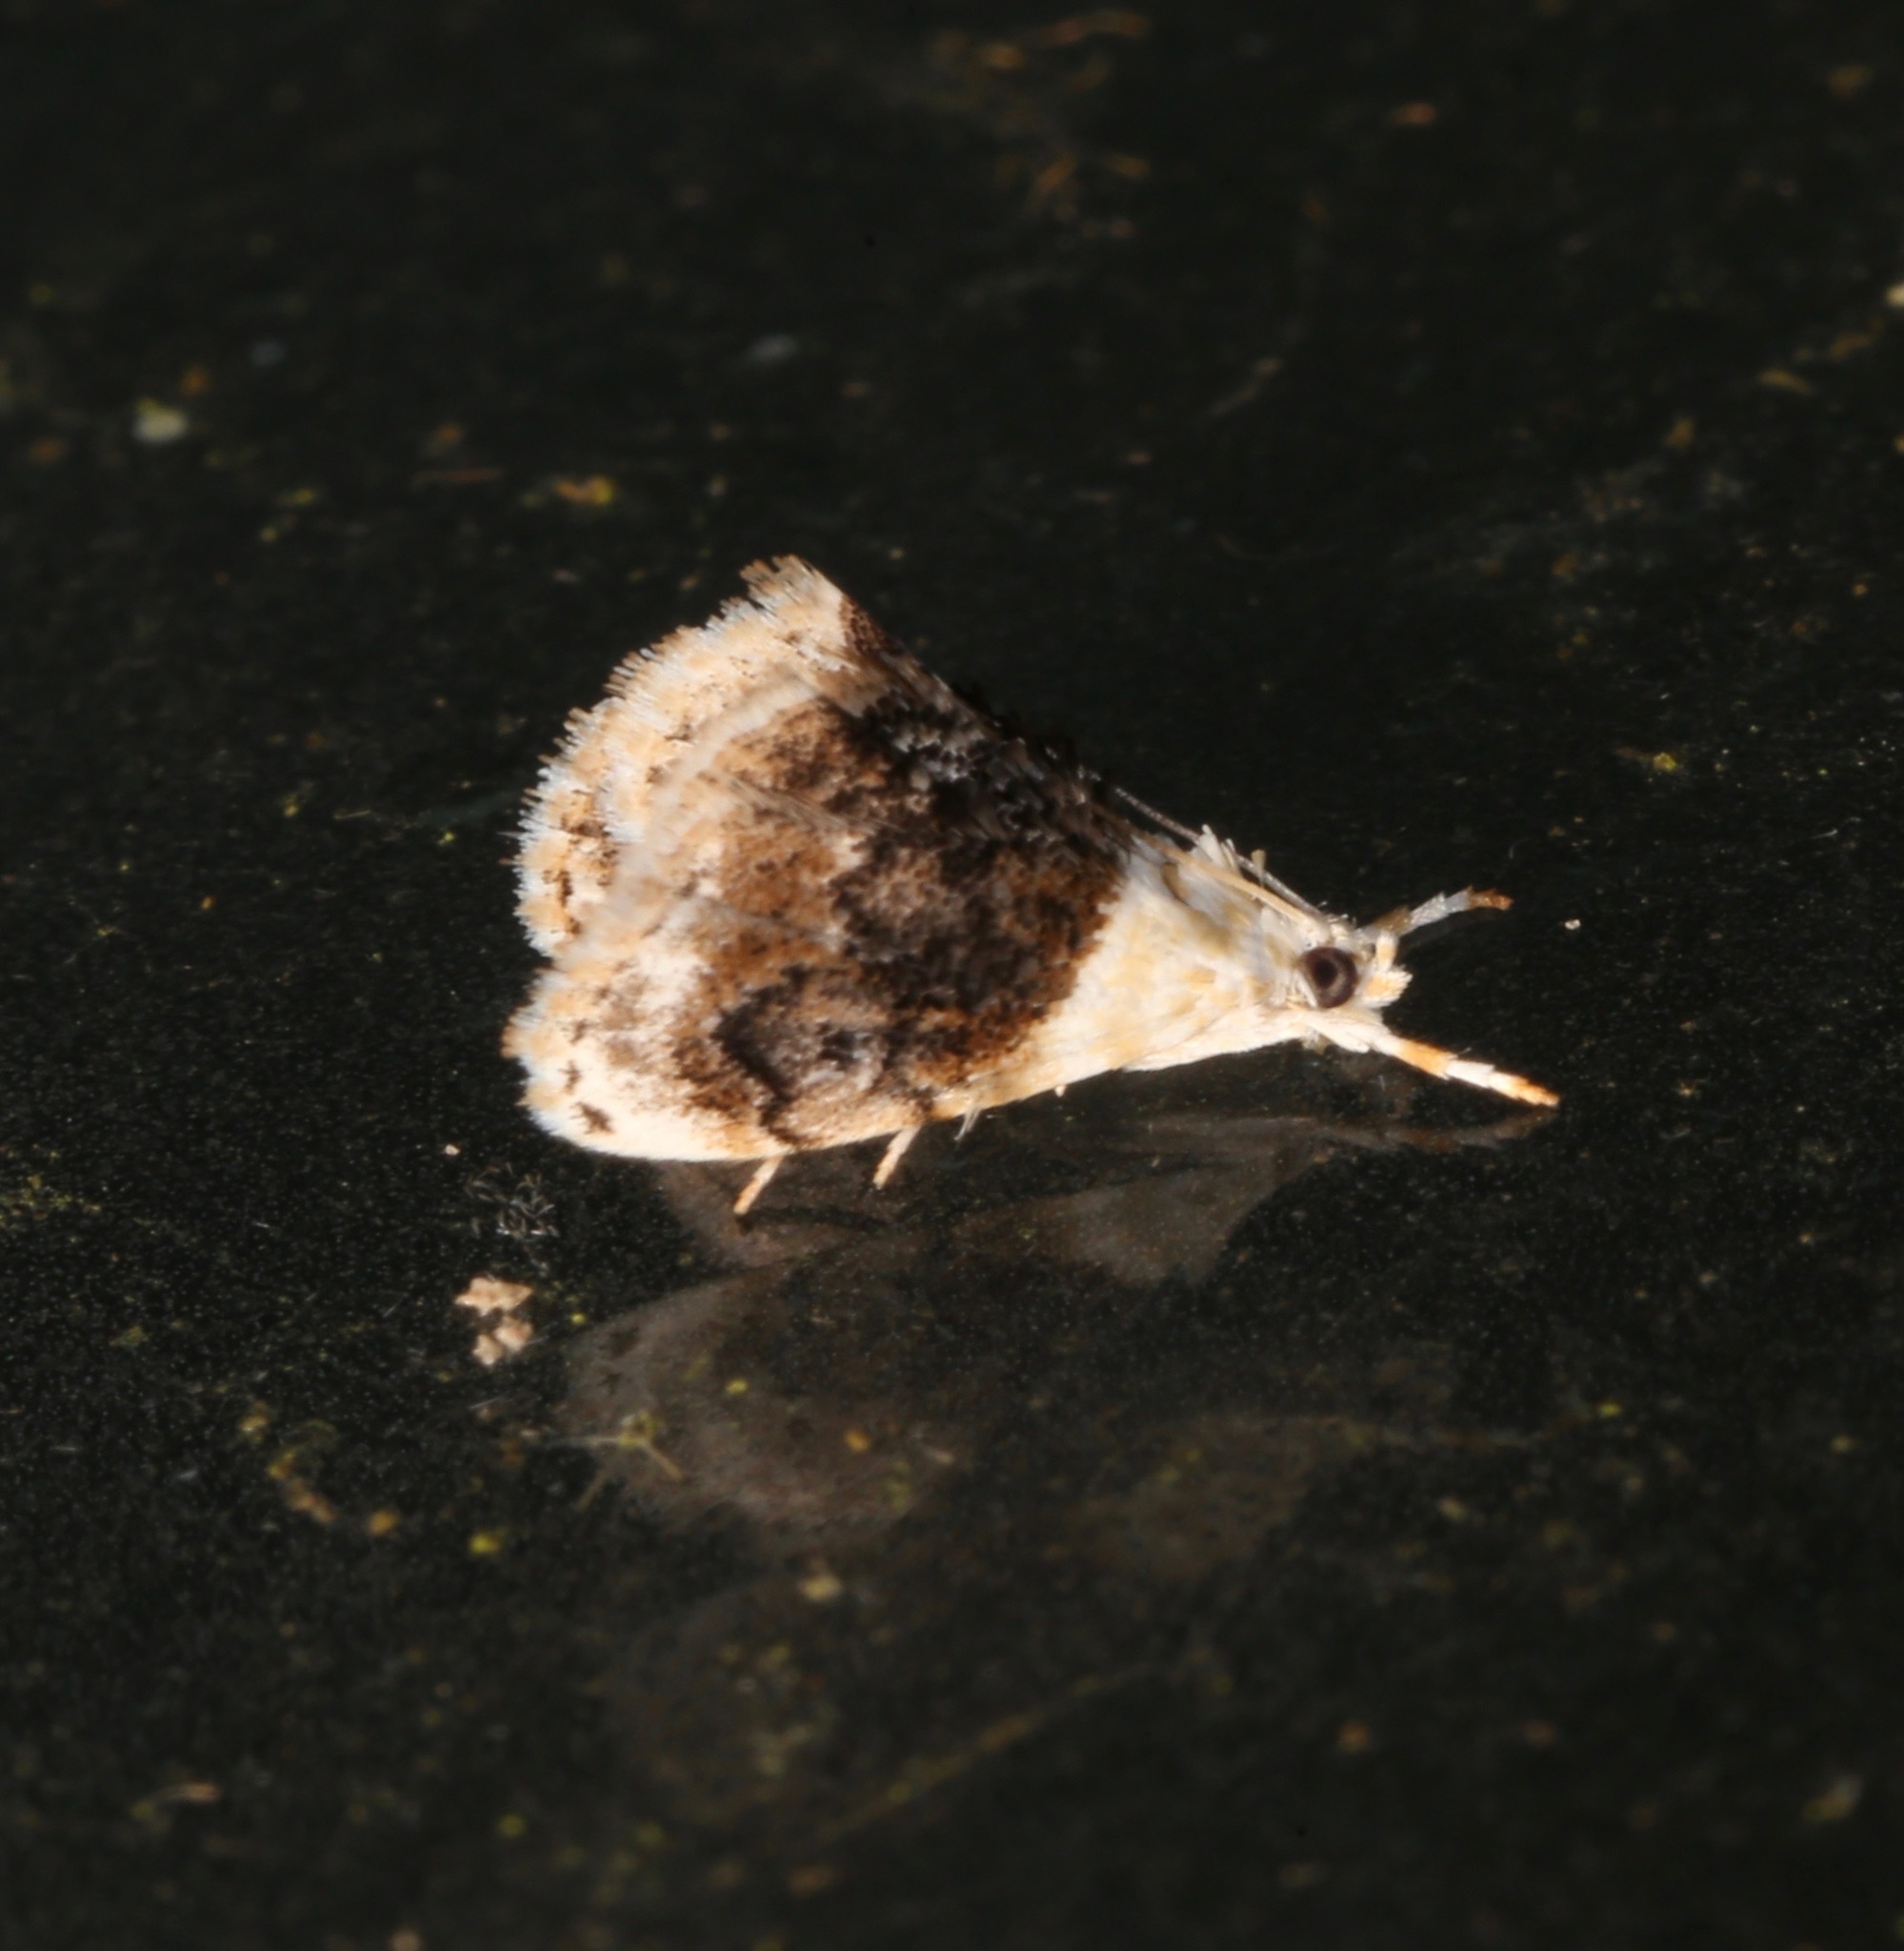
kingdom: Animalia
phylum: Arthropoda
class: Insecta
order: Lepidoptera
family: Crambidae
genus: Lipocosmodes
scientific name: Lipocosmodes fuliginosalis
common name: Sooty lipocosmodes moth
